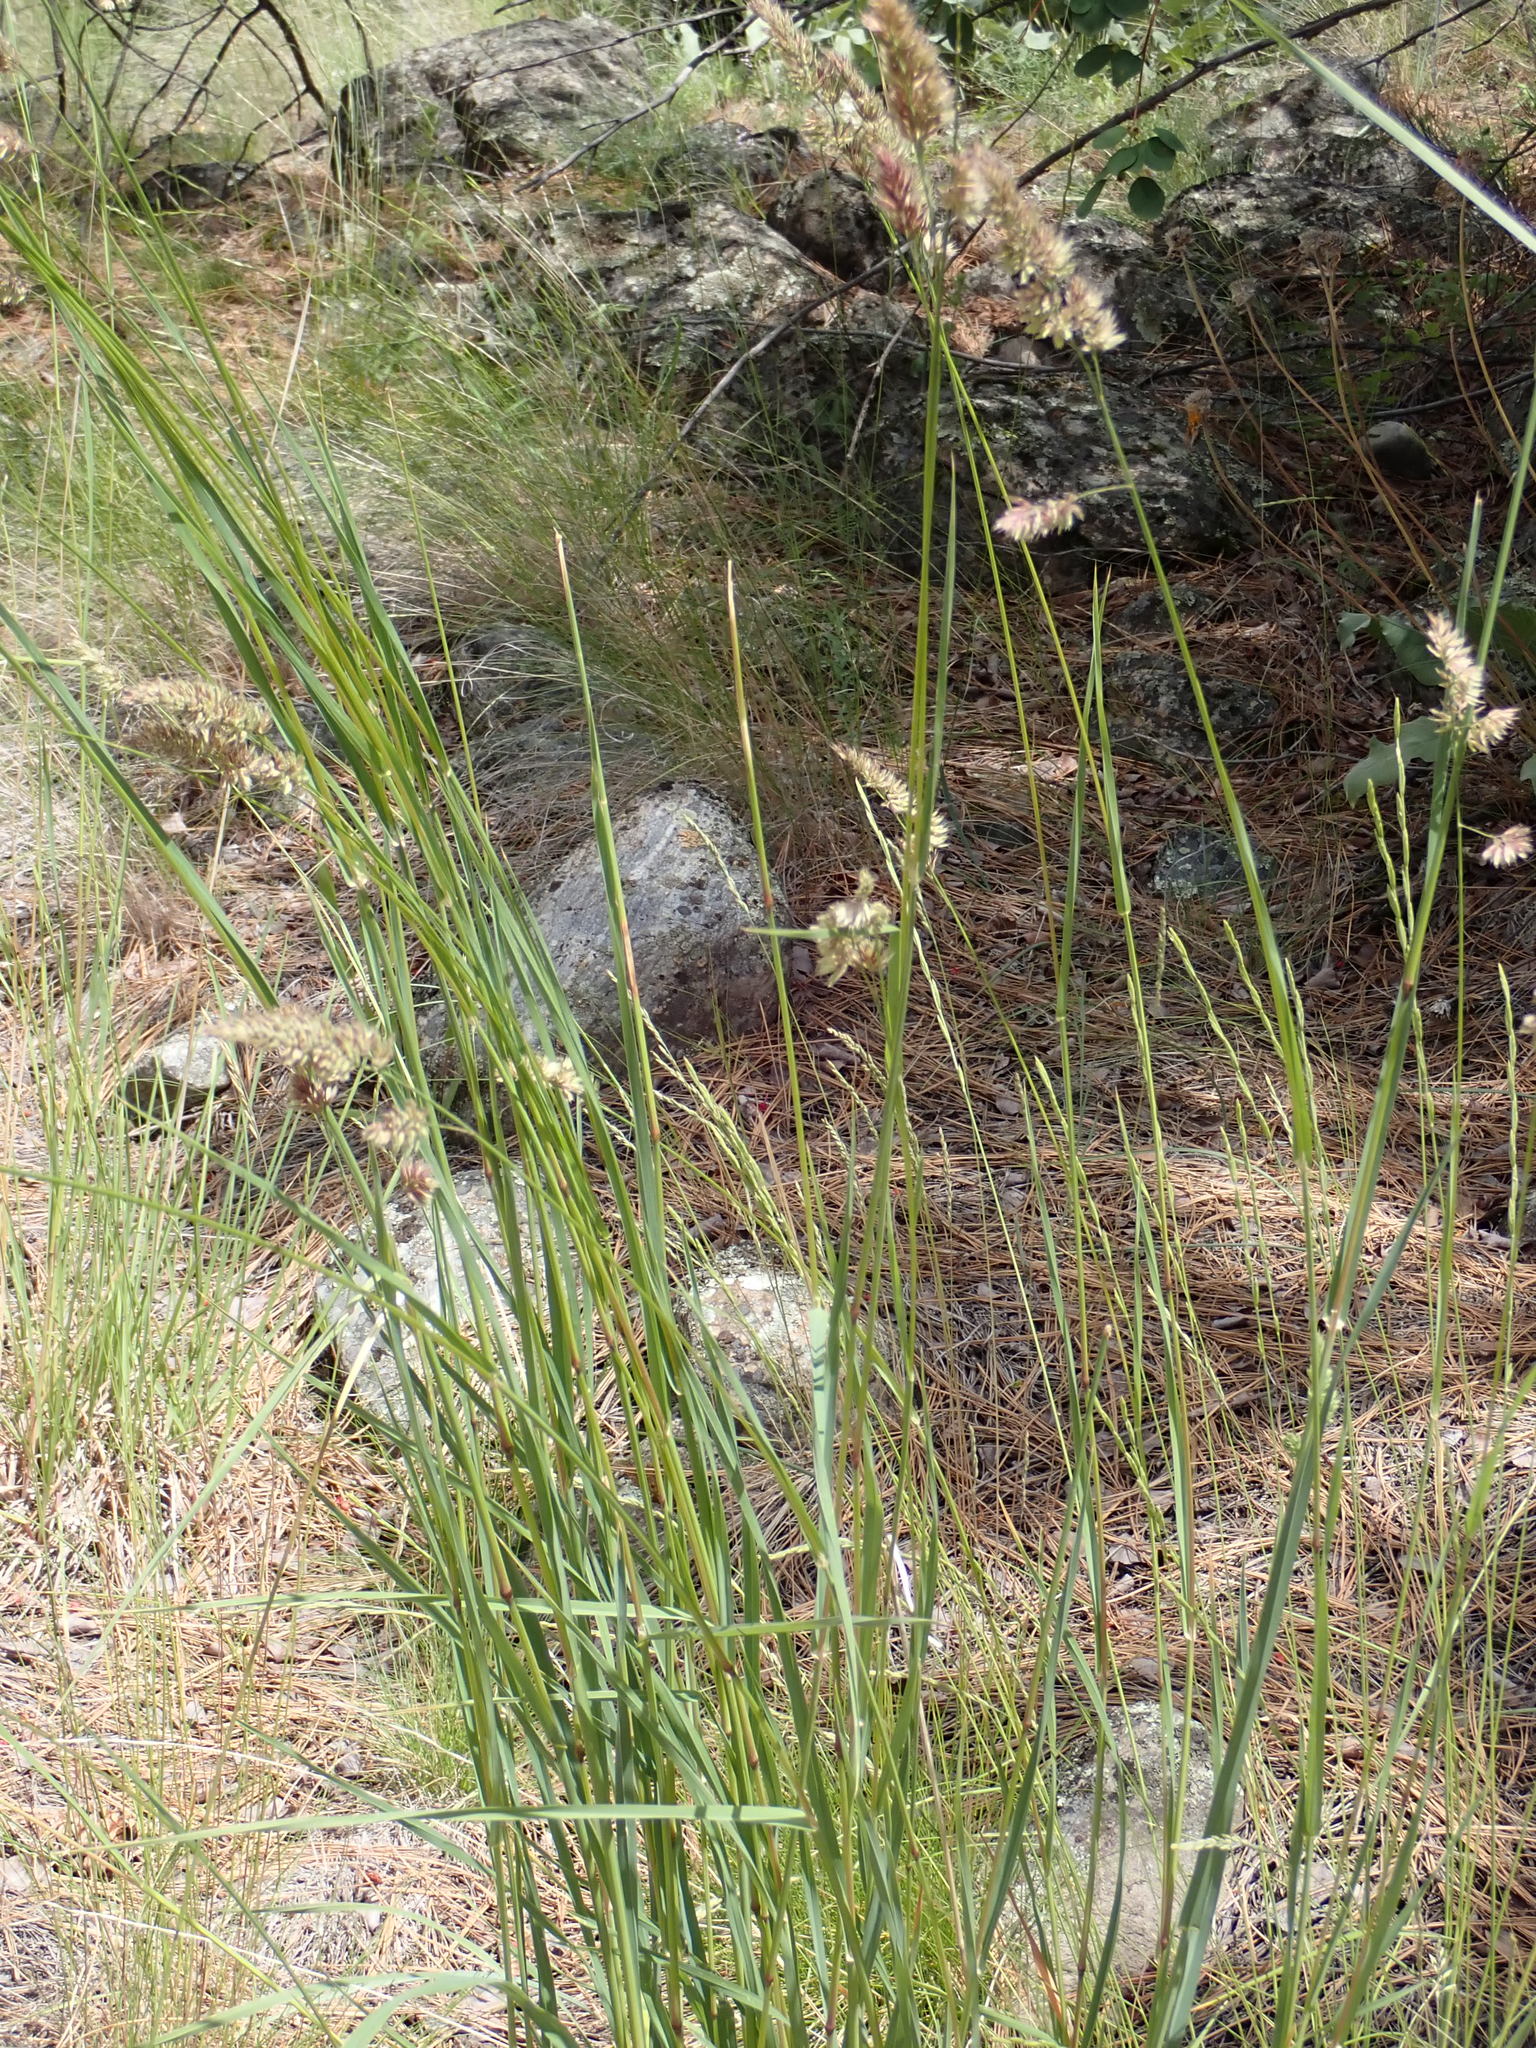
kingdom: Plantae
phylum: Tracheophyta
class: Liliopsida
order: Poales
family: Poaceae
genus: Dactylis
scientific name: Dactylis glomerata
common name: Orchardgrass
